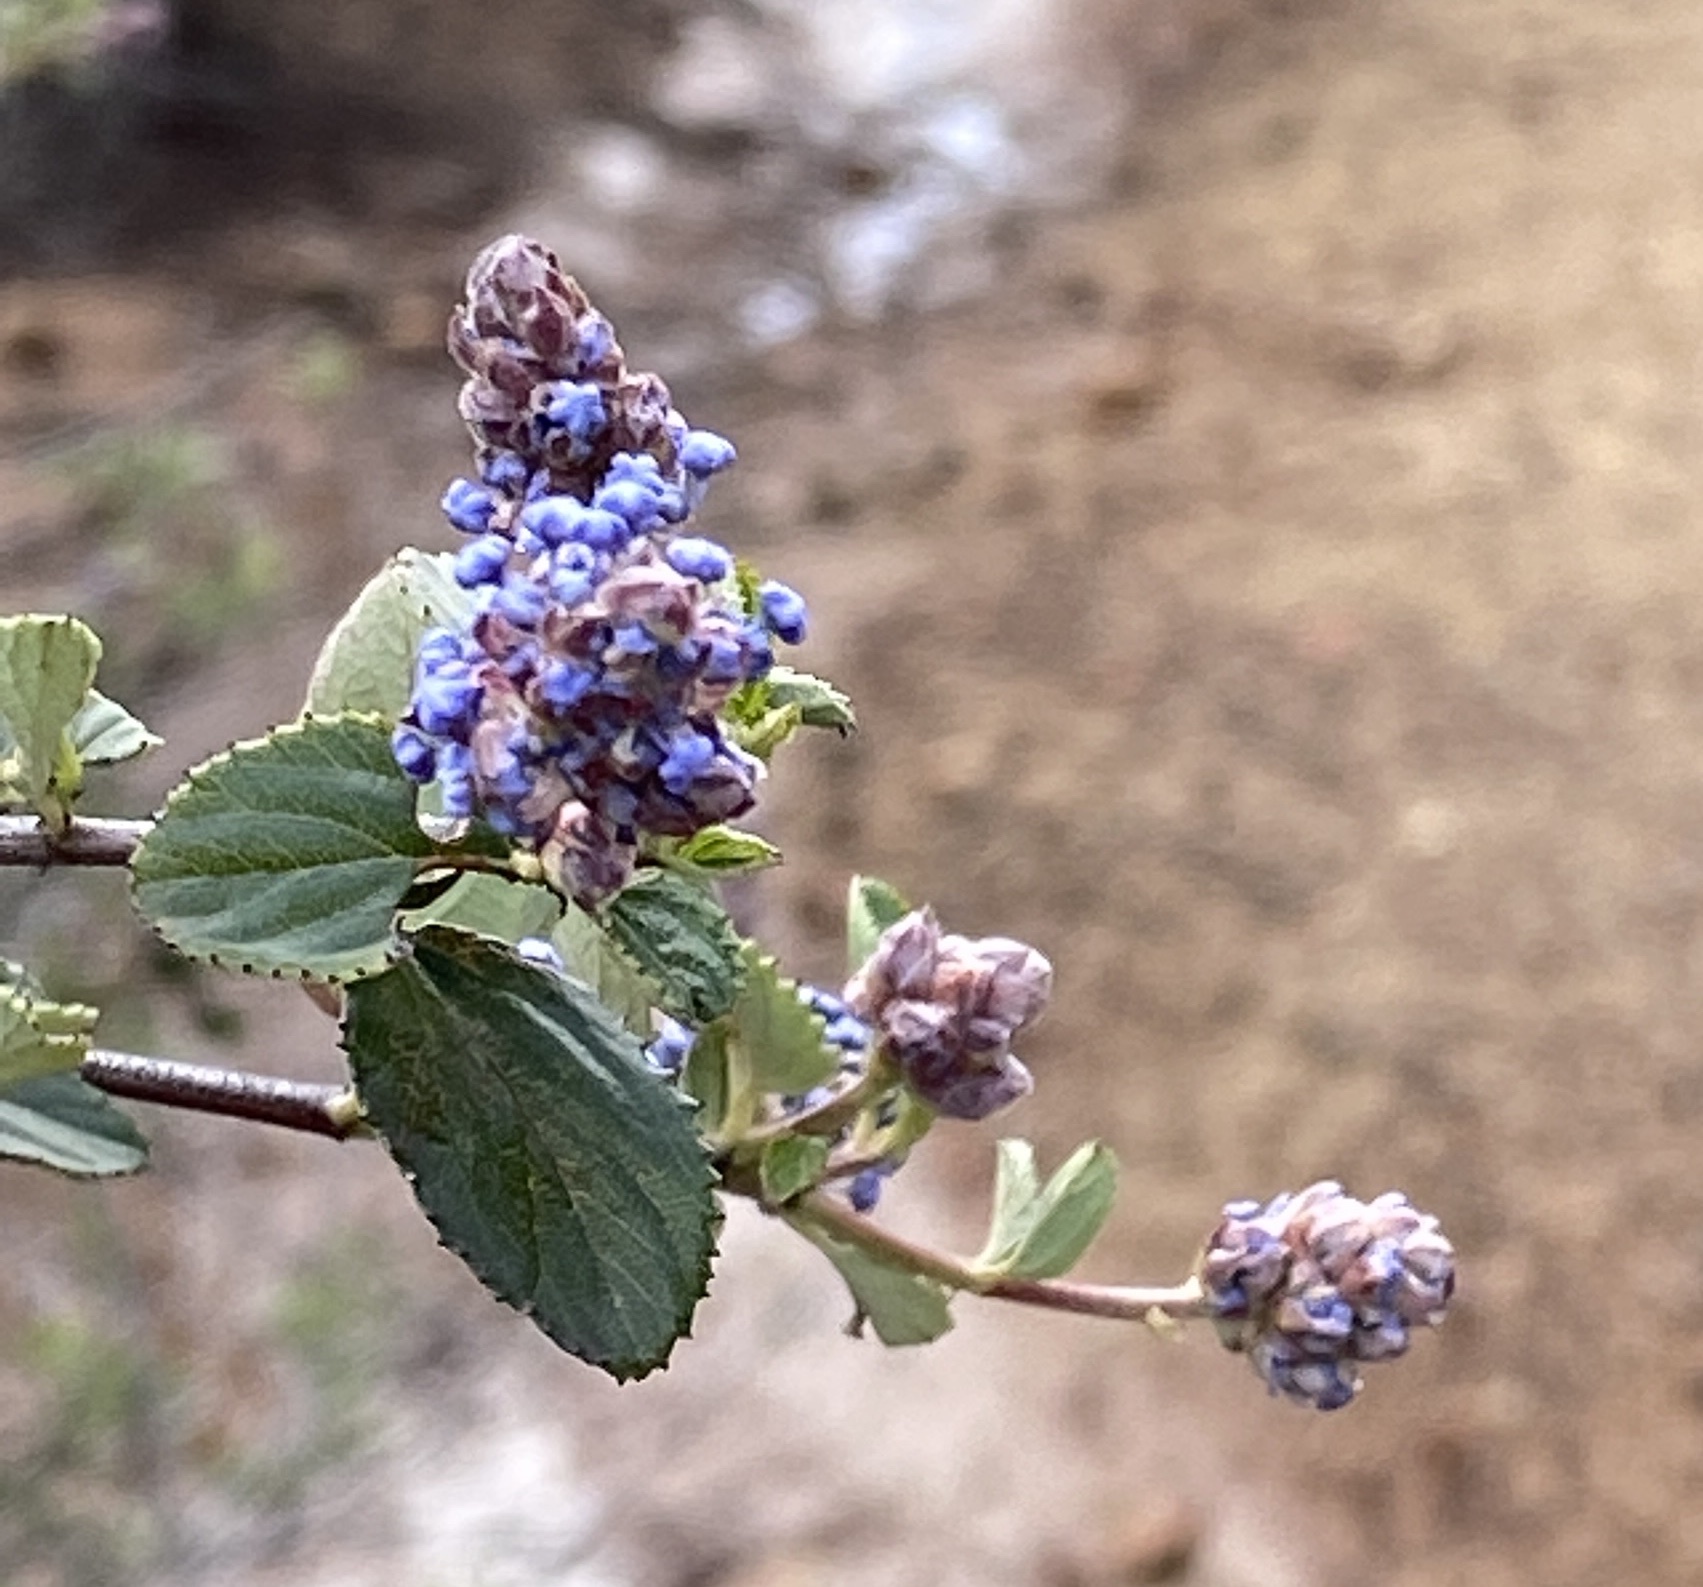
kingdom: Plantae
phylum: Tracheophyta
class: Magnoliopsida
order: Rosales
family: Rhamnaceae
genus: Ceanothus
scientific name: Ceanothus tomentosus
